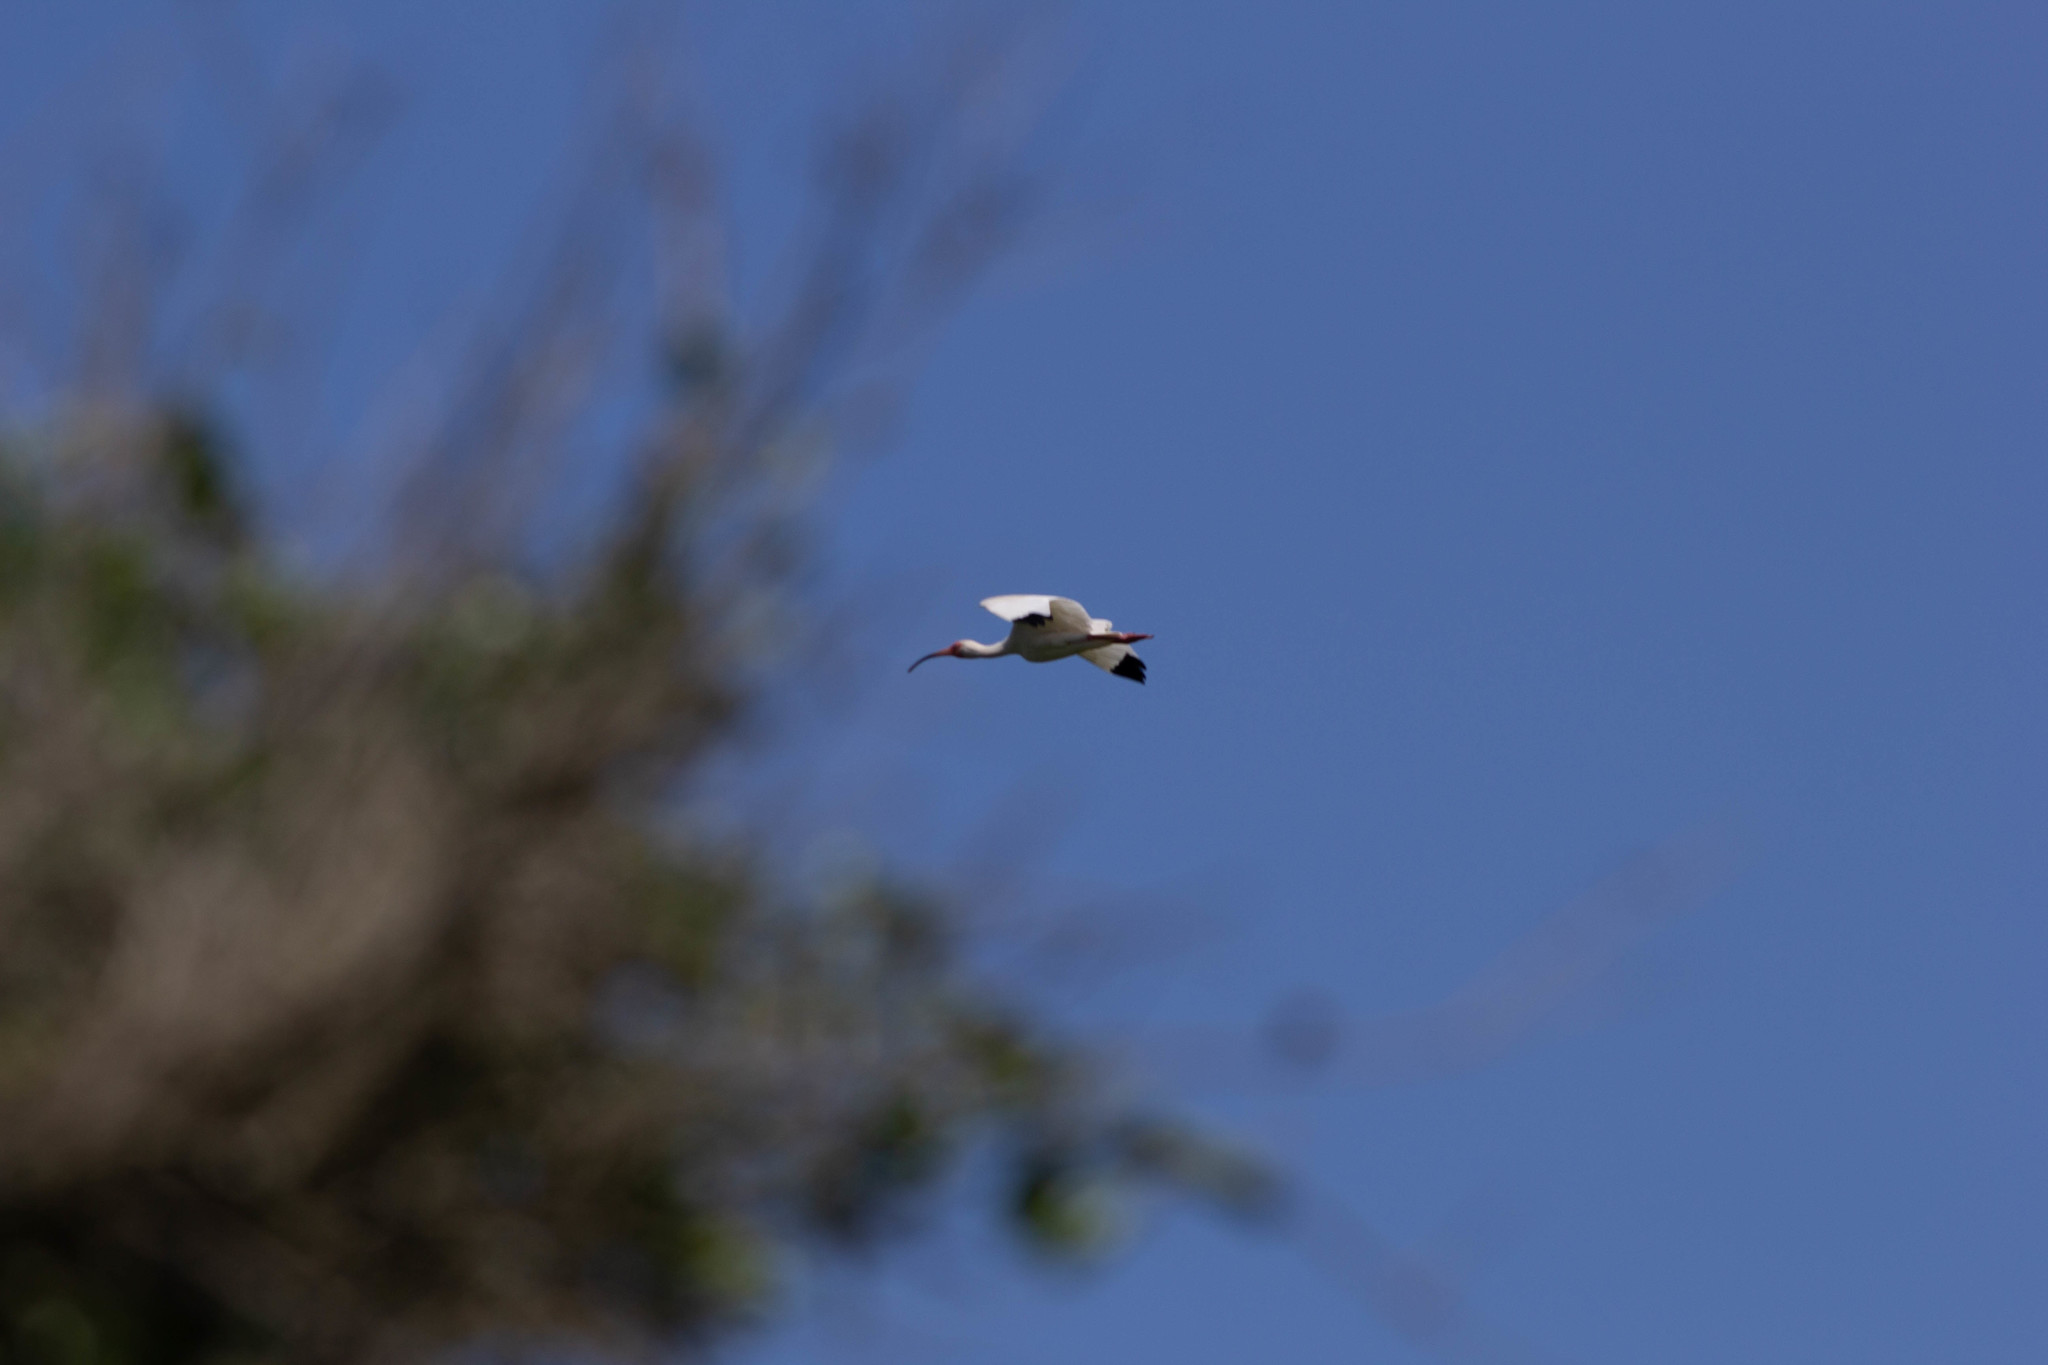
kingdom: Animalia
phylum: Chordata
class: Aves
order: Pelecaniformes
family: Threskiornithidae
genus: Eudocimus
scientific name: Eudocimus albus
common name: White ibis
